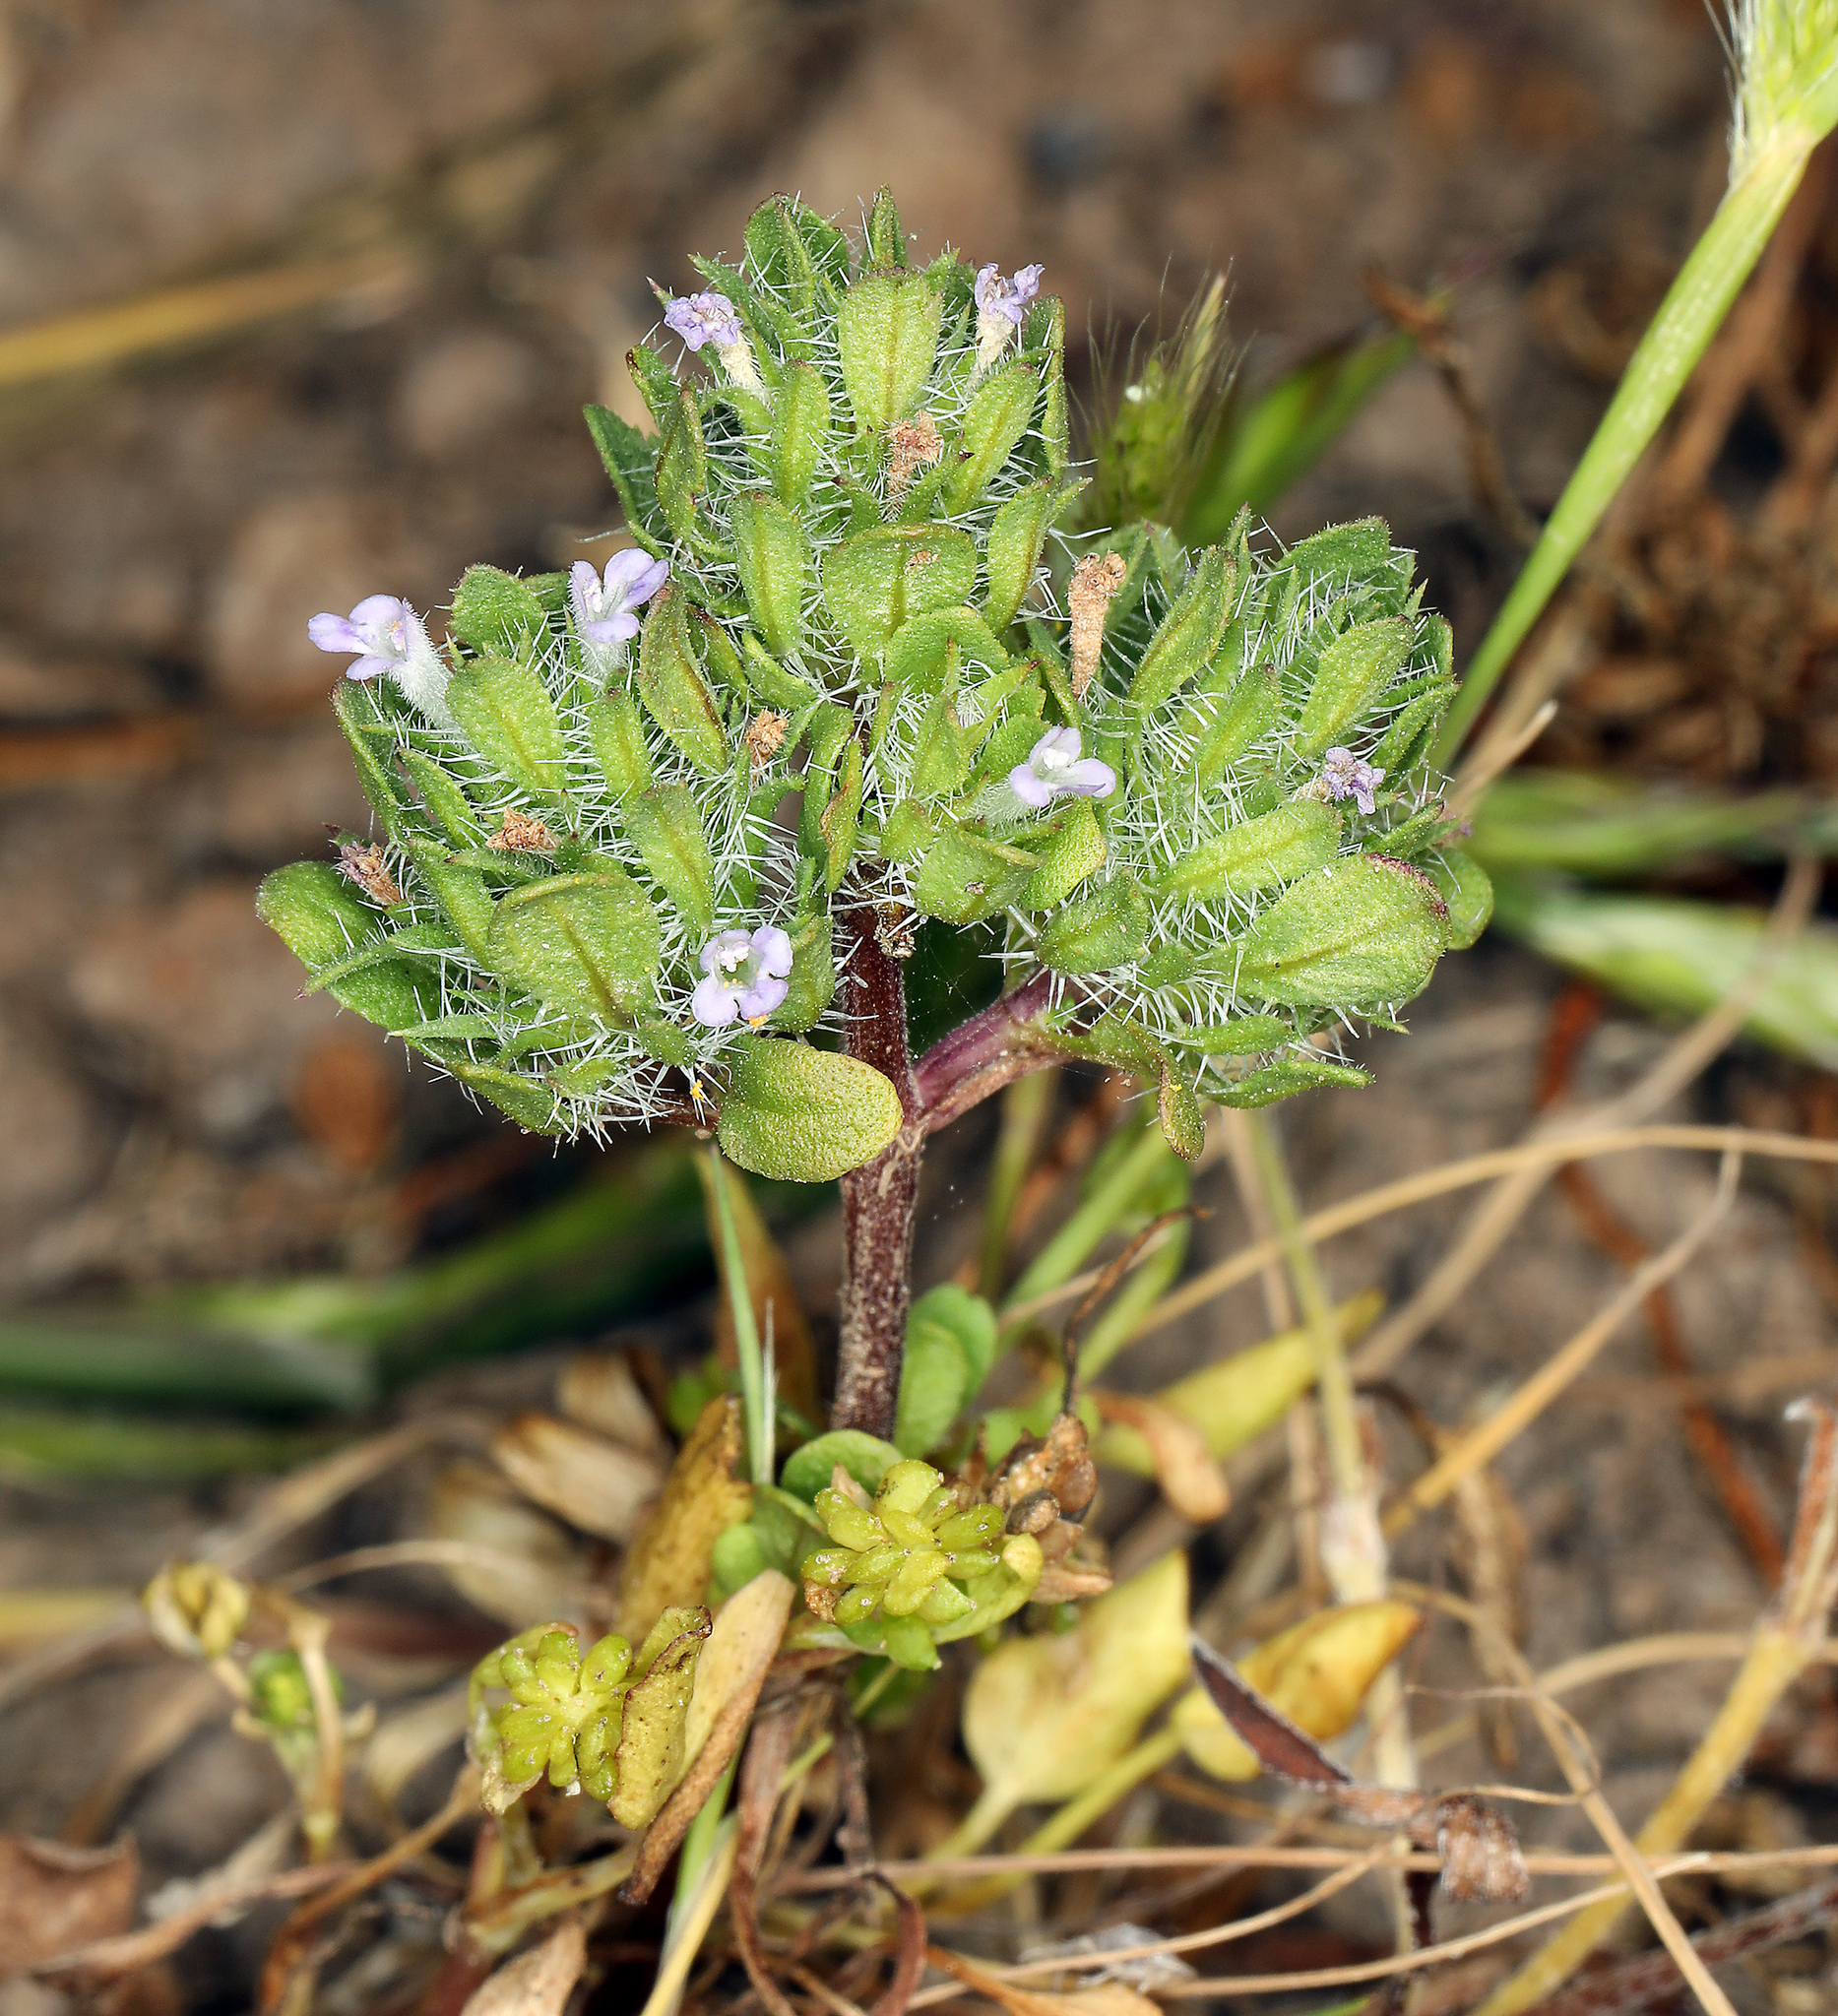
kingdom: Plantae
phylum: Tracheophyta
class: Magnoliopsida
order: Lamiales
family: Lamiaceae
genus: Pogogyne
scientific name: Pogogyne zizyphoroides
